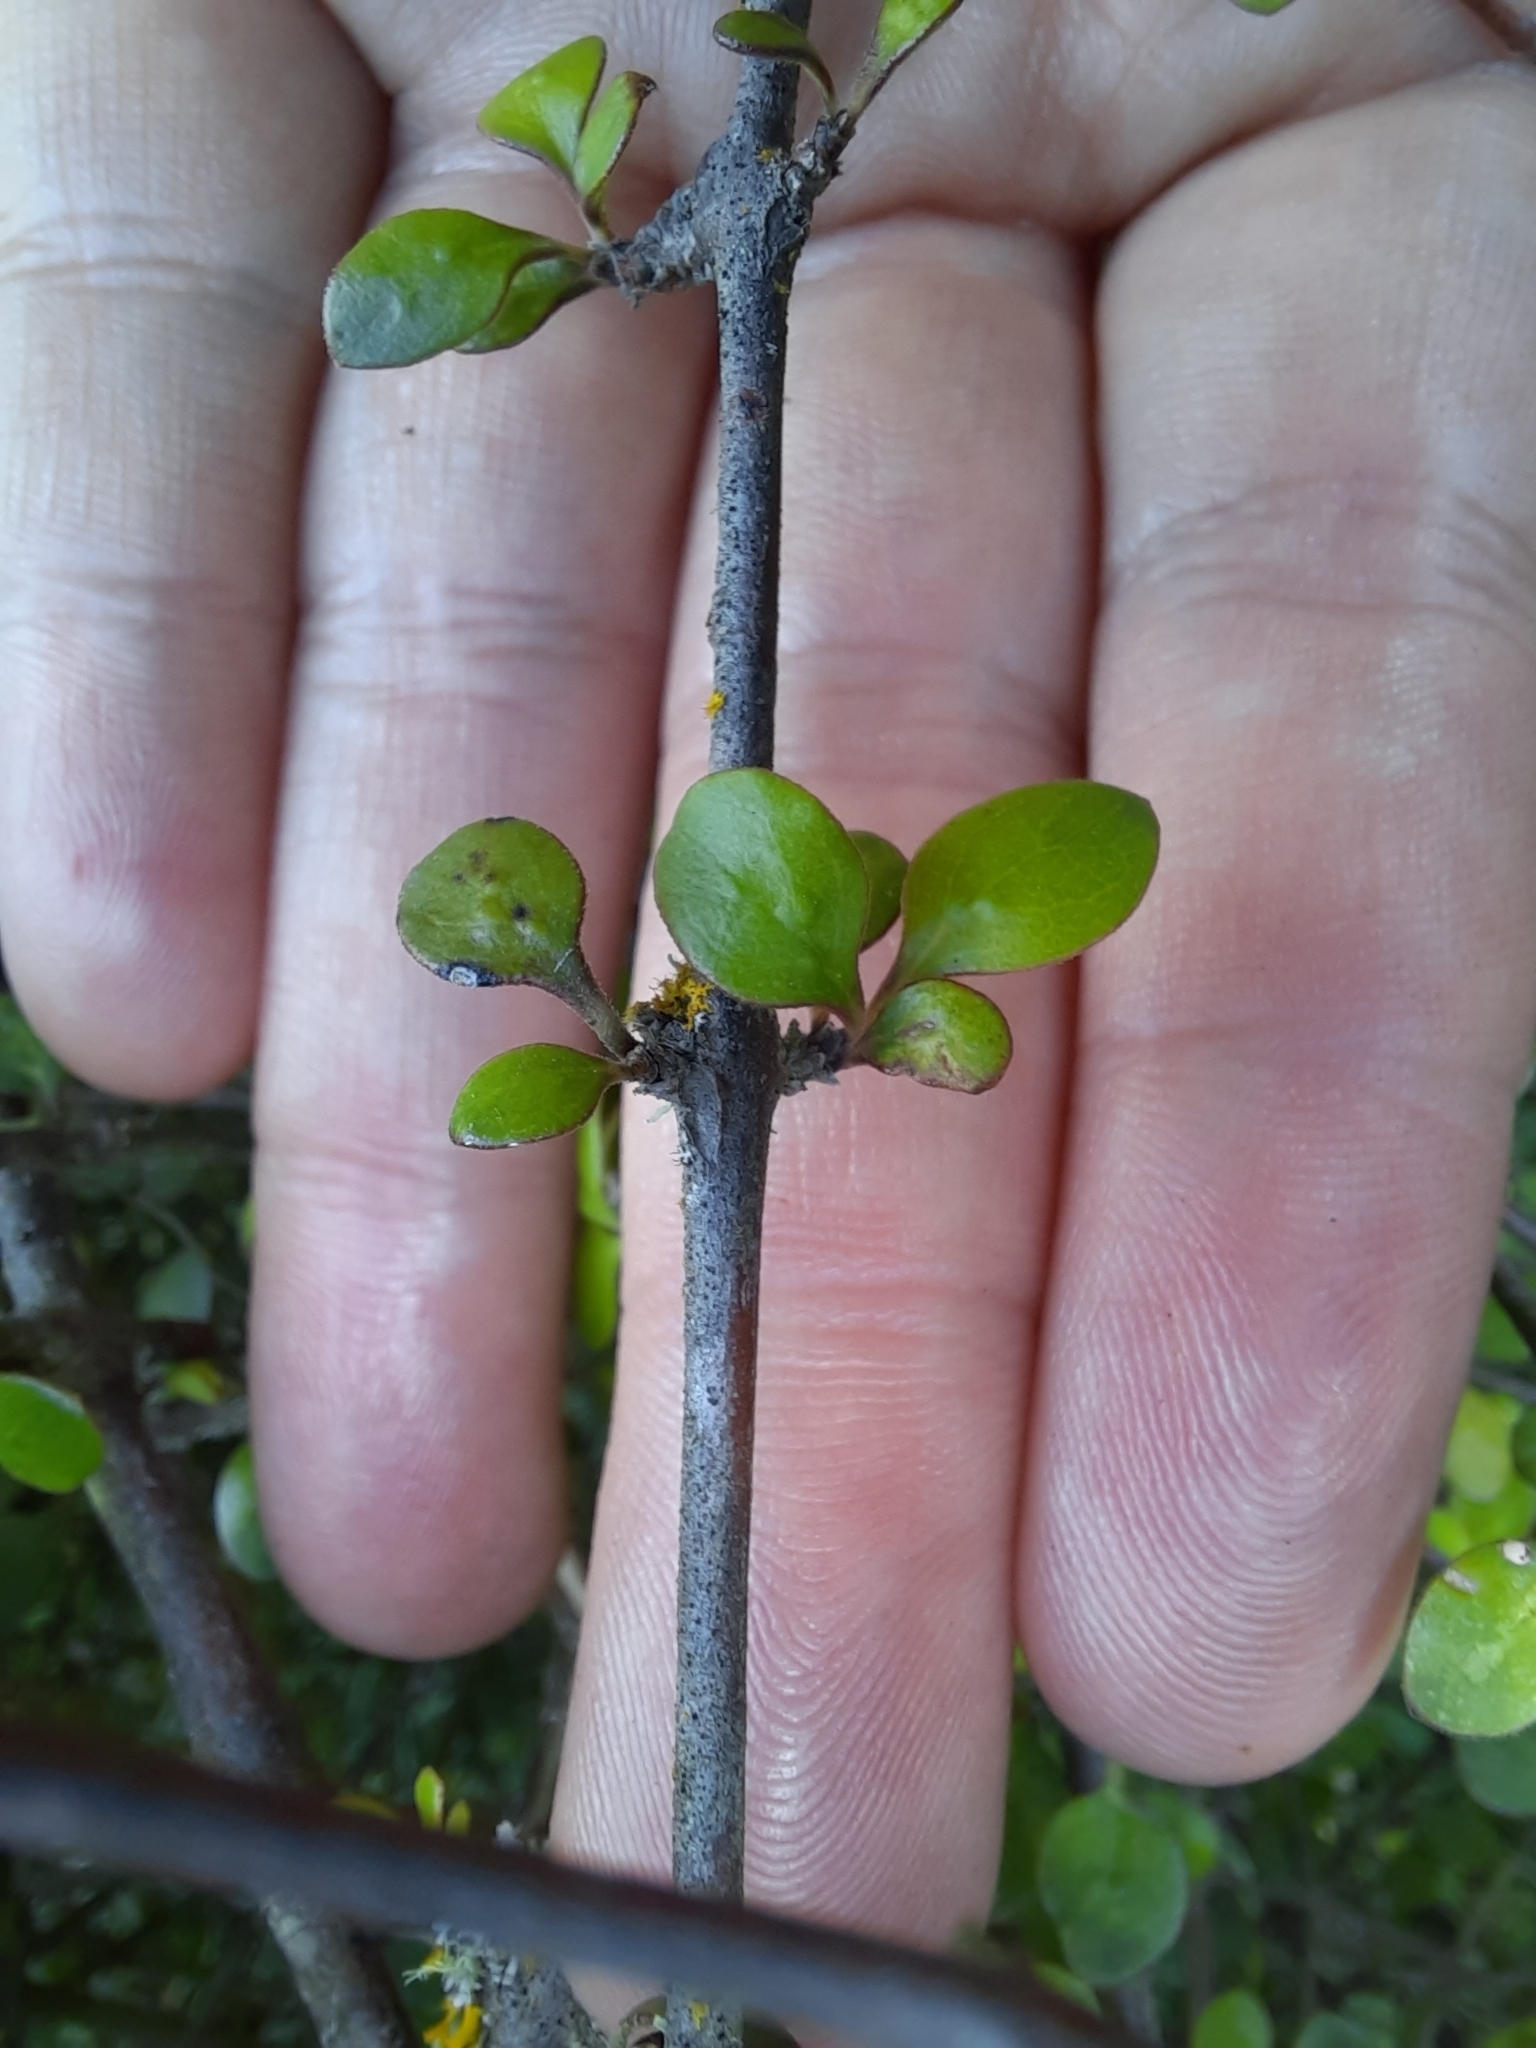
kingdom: Plantae
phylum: Tracheophyta
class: Magnoliopsida
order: Gentianales
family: Rubiaceae
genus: Coprosma
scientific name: Coprosma crassifolia
